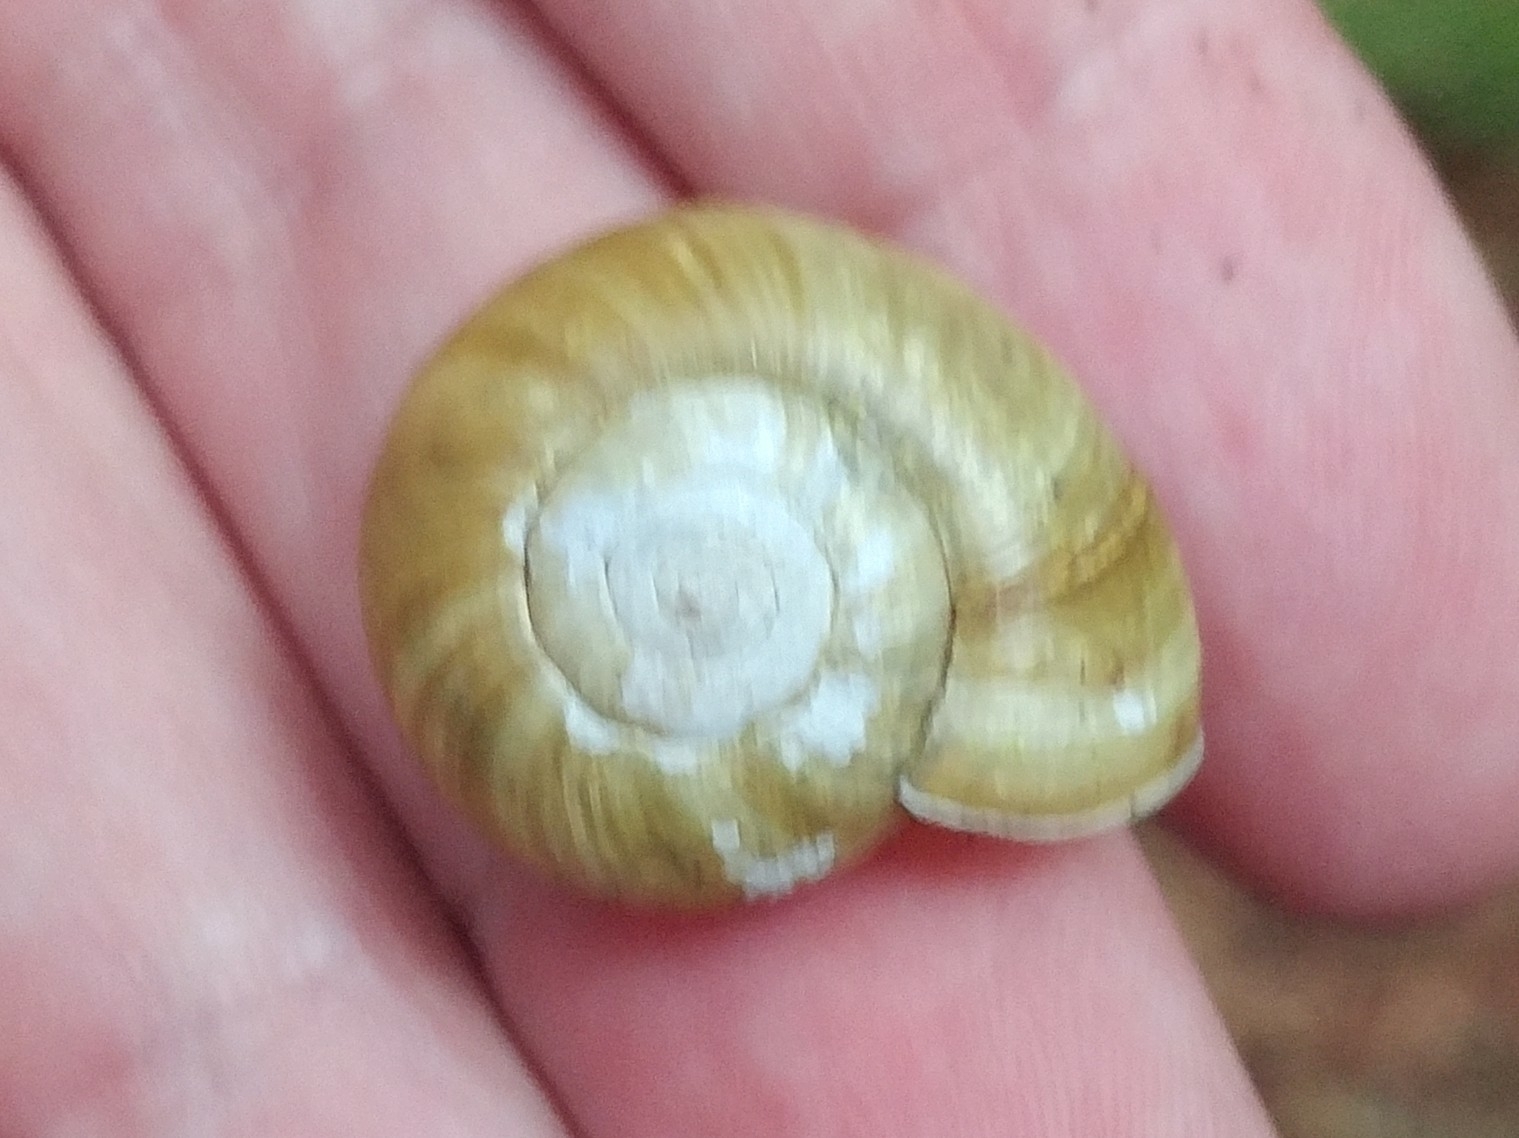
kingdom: Animalia
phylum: Mollusca
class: Gastropoda
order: Stylommatophora
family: Haplotrematidae
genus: Haplotrema
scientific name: Haplotrema vancouverense
